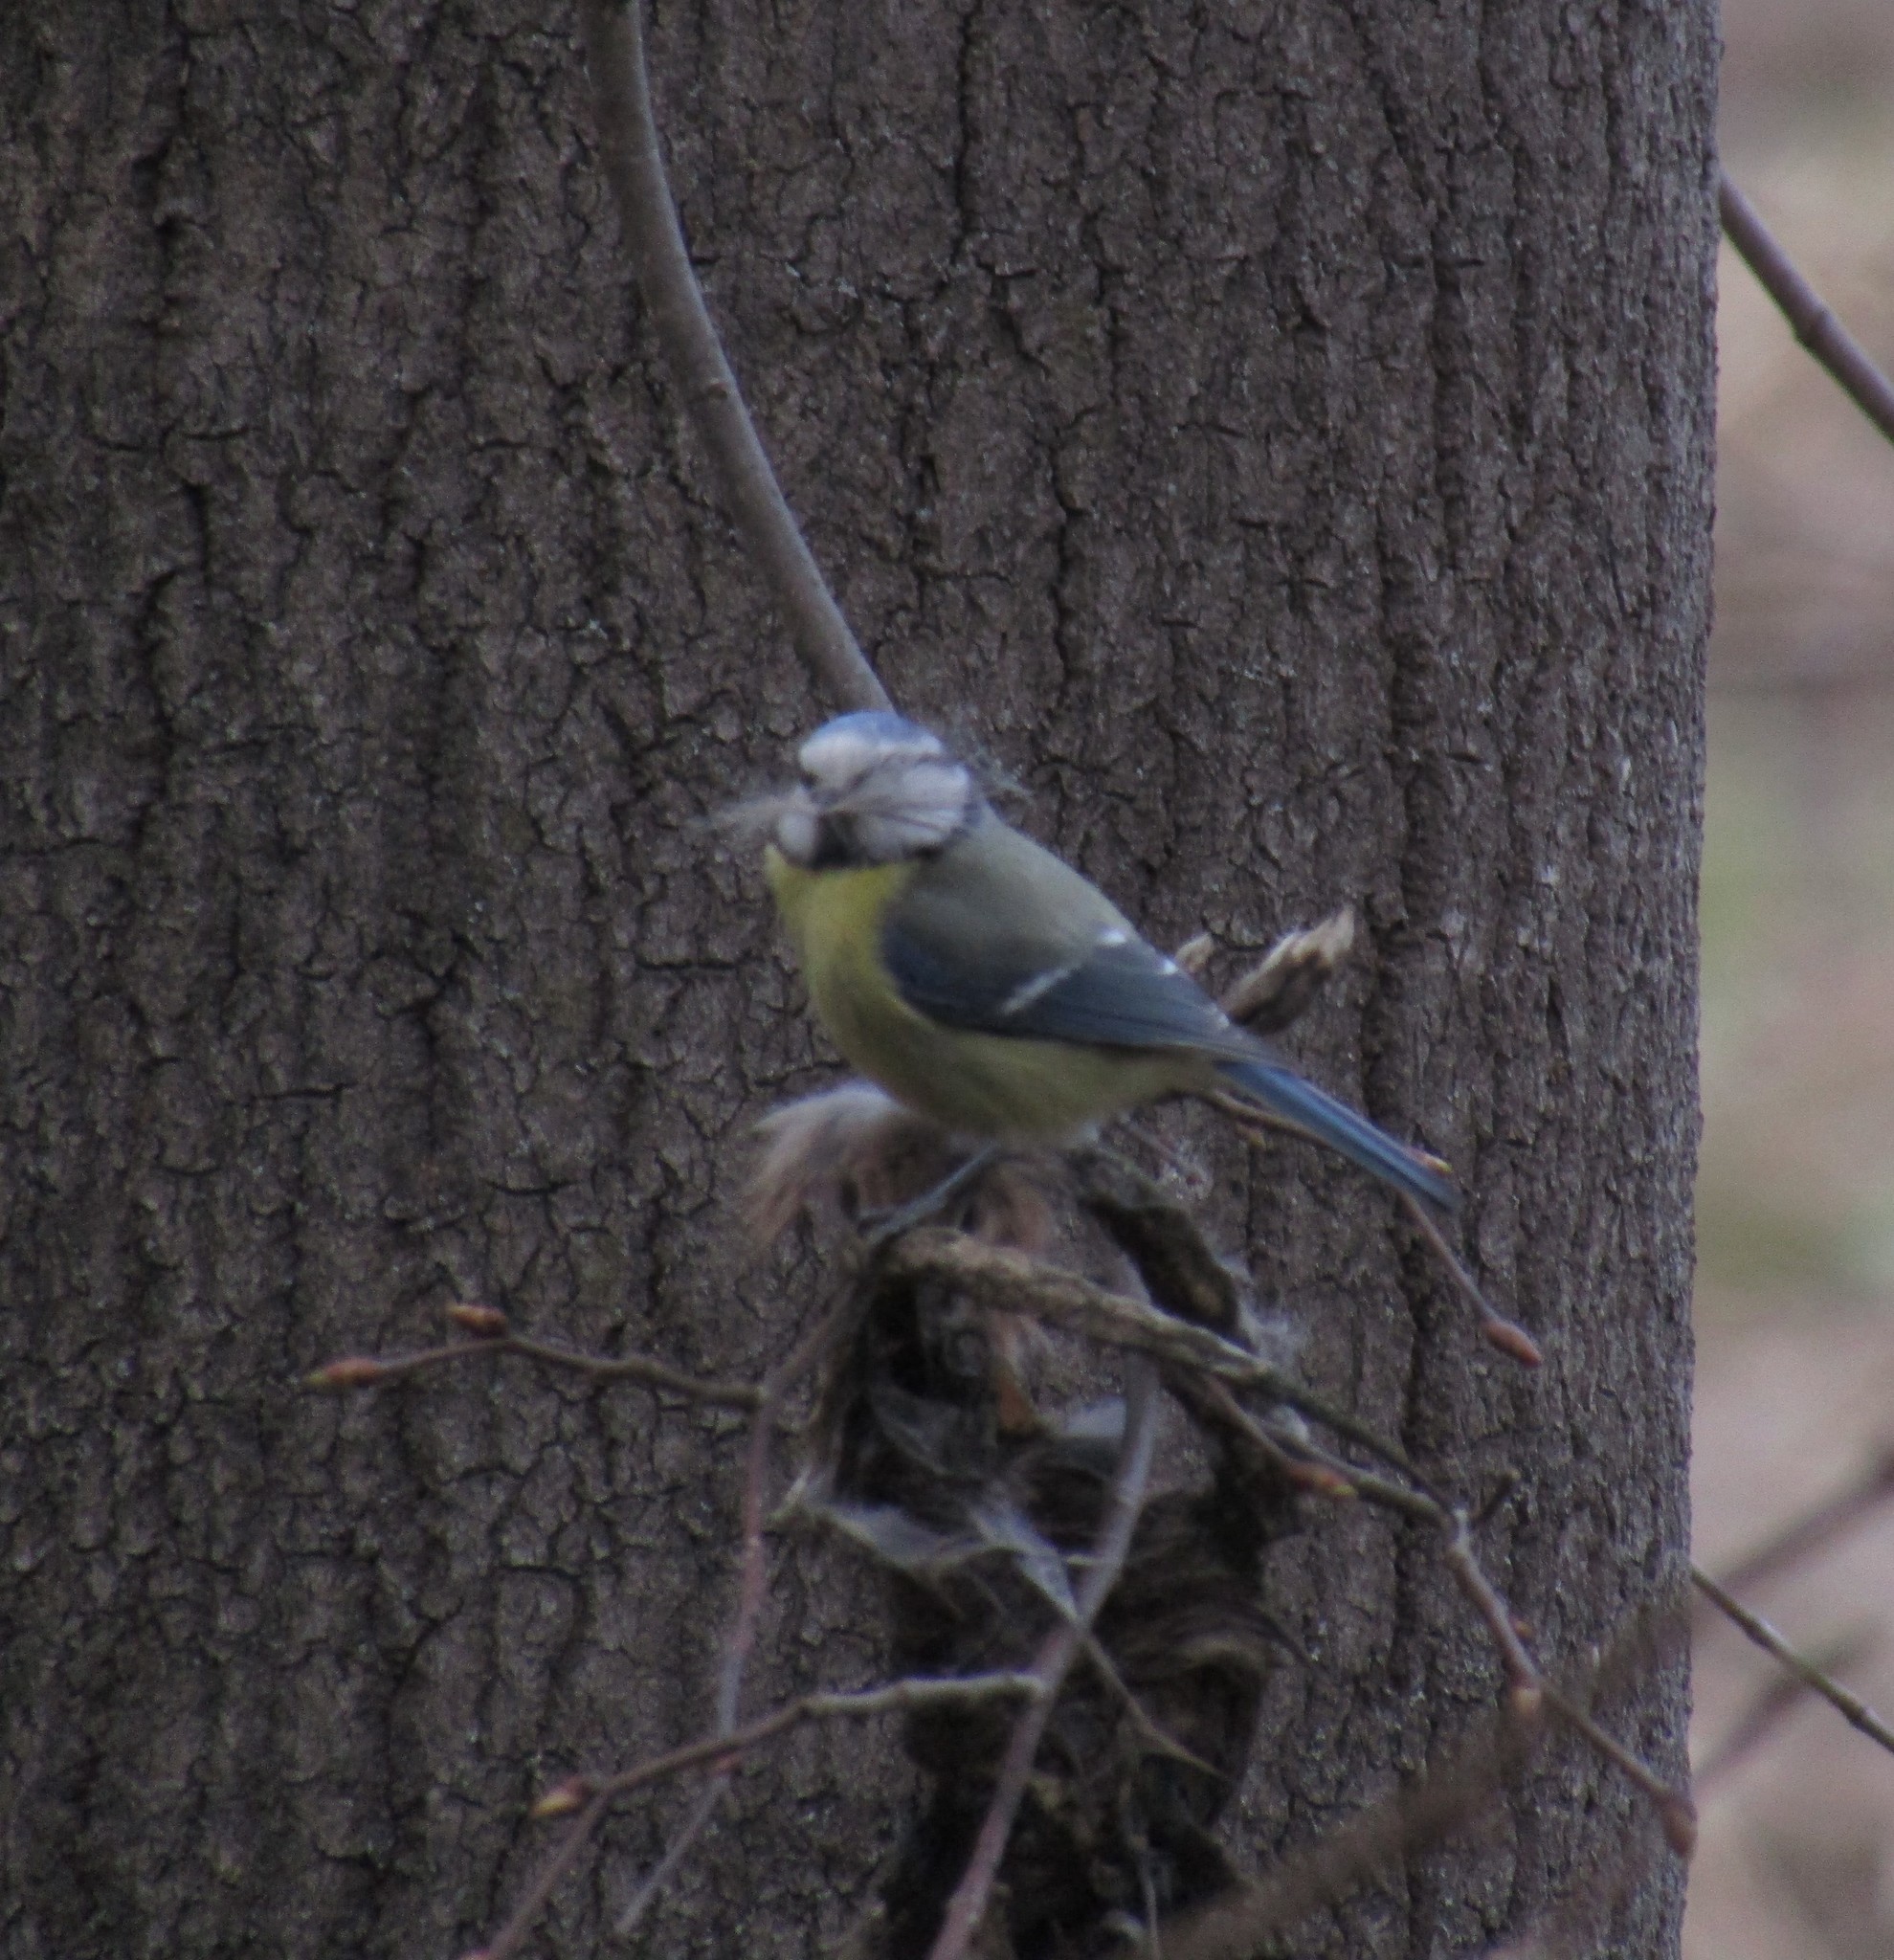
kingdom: Animalia
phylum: Chordata
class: Aves
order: Passeriformes
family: Paridae
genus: Cyanistes
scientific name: Cyanistes caeruleus
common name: Eurasian blue tit
